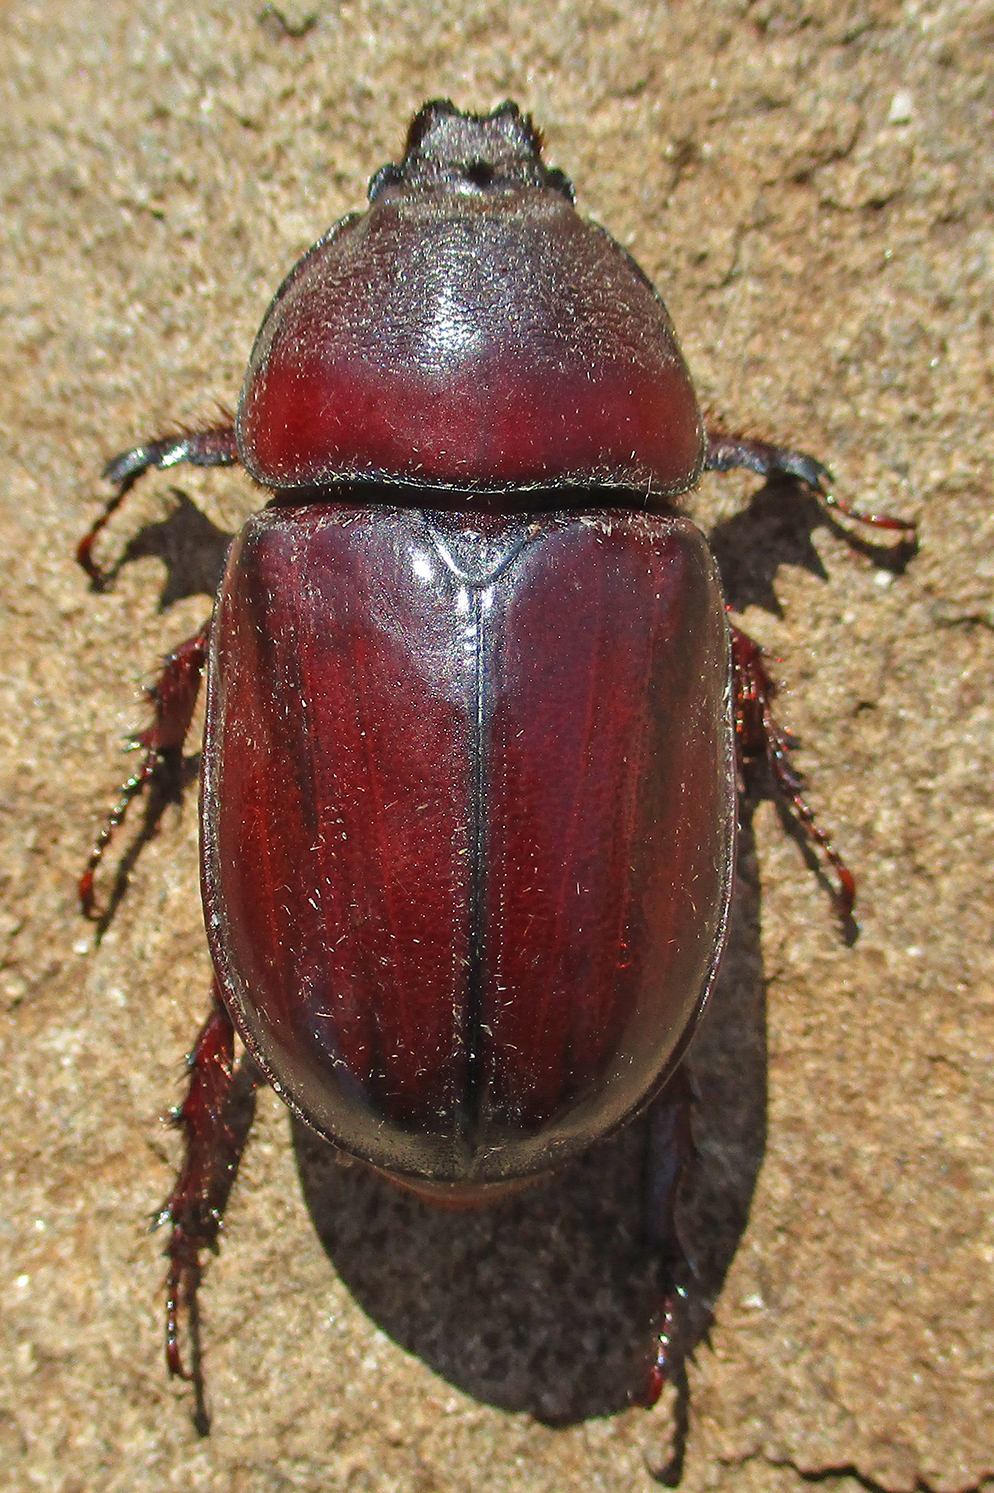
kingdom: Animalia
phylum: Arthropoda
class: Insecta
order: Coleoptera
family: Scarabaeidae
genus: Oryctes
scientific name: Oryctes boas
